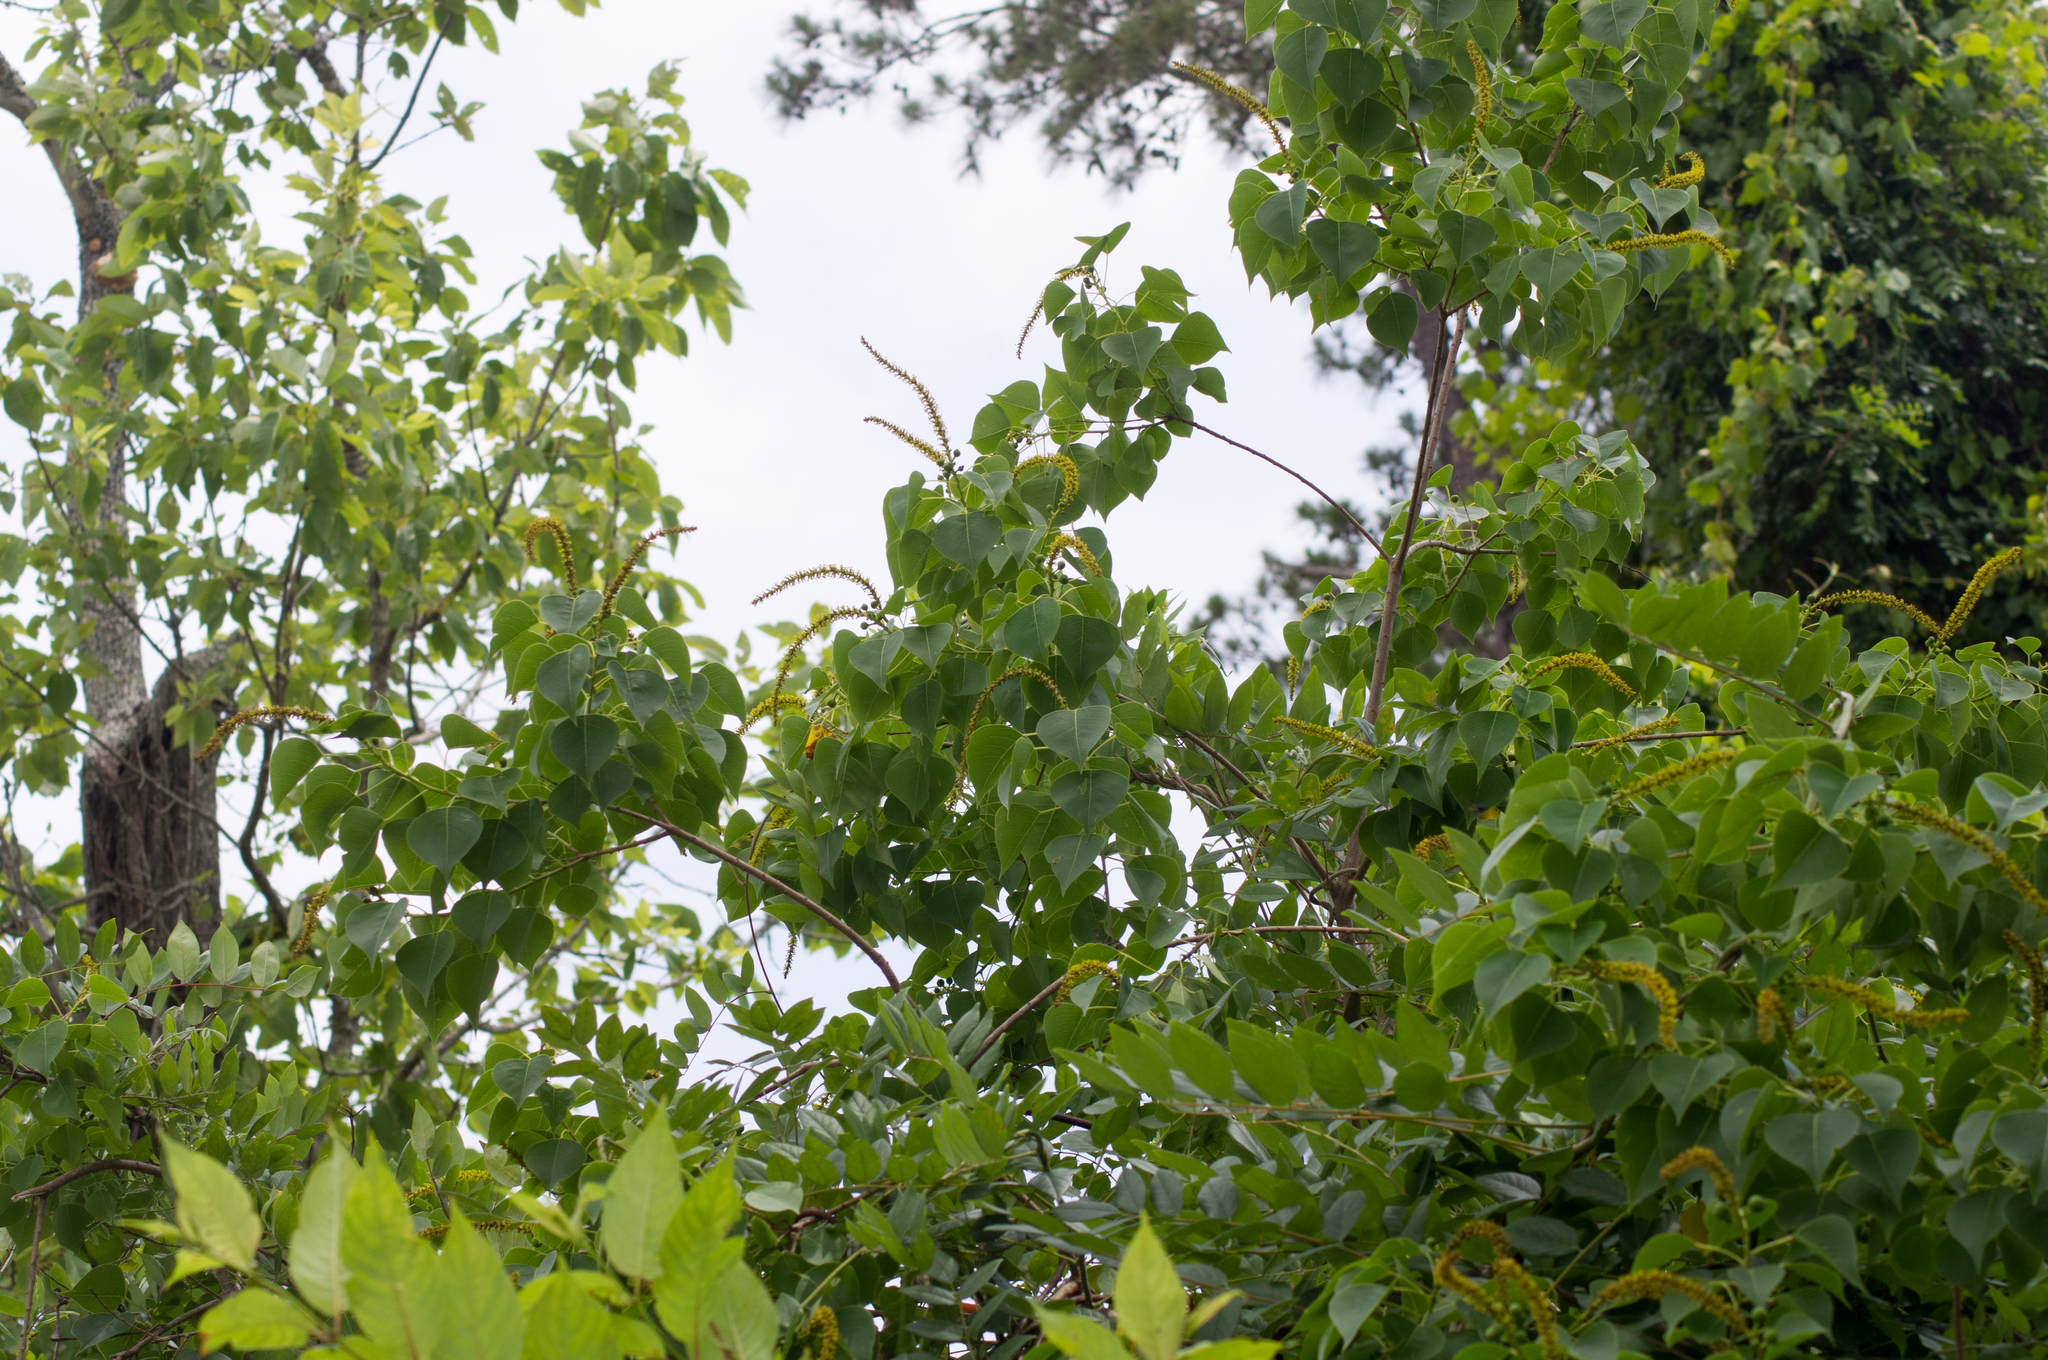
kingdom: Plantae
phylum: Tracheophyta
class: Magnoliopsida
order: Malpighiales
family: Euphorbiaceae
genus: Triadica
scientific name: Triadica sebifera
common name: Chinese tallow
